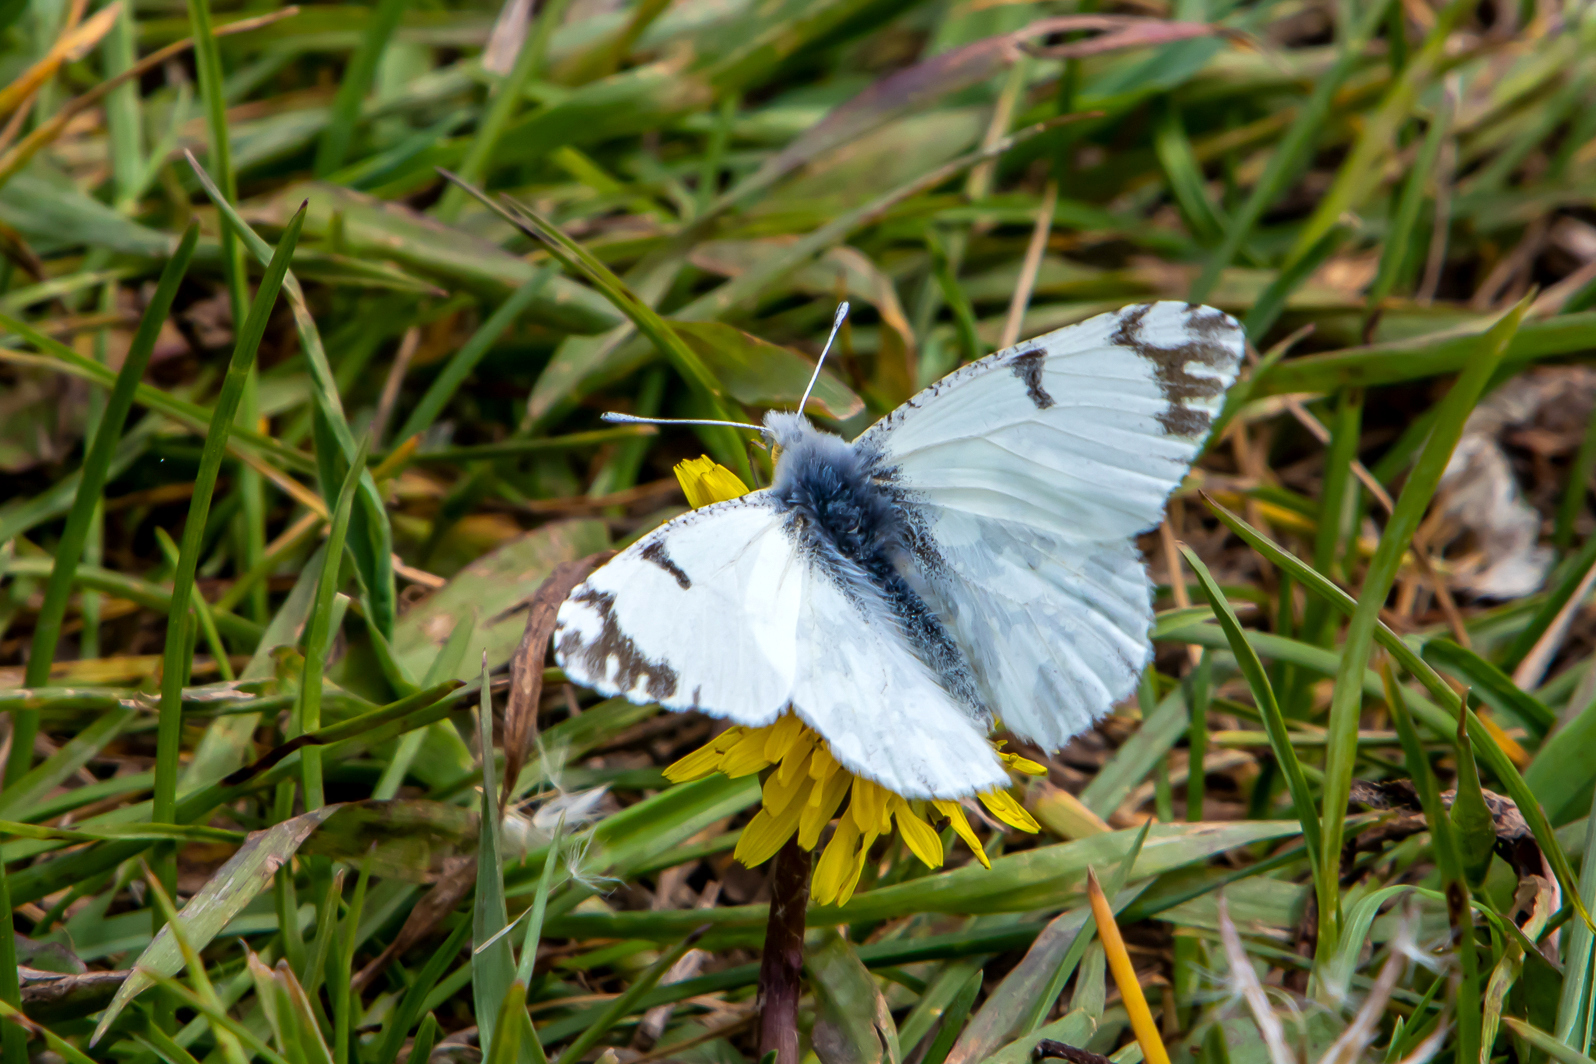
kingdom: Animalia
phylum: Arthropoda
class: Insecta
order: Lepidoptera
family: Pieridae
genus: Euchloe
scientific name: Euchloe ausonides
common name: Creamy marblewing
